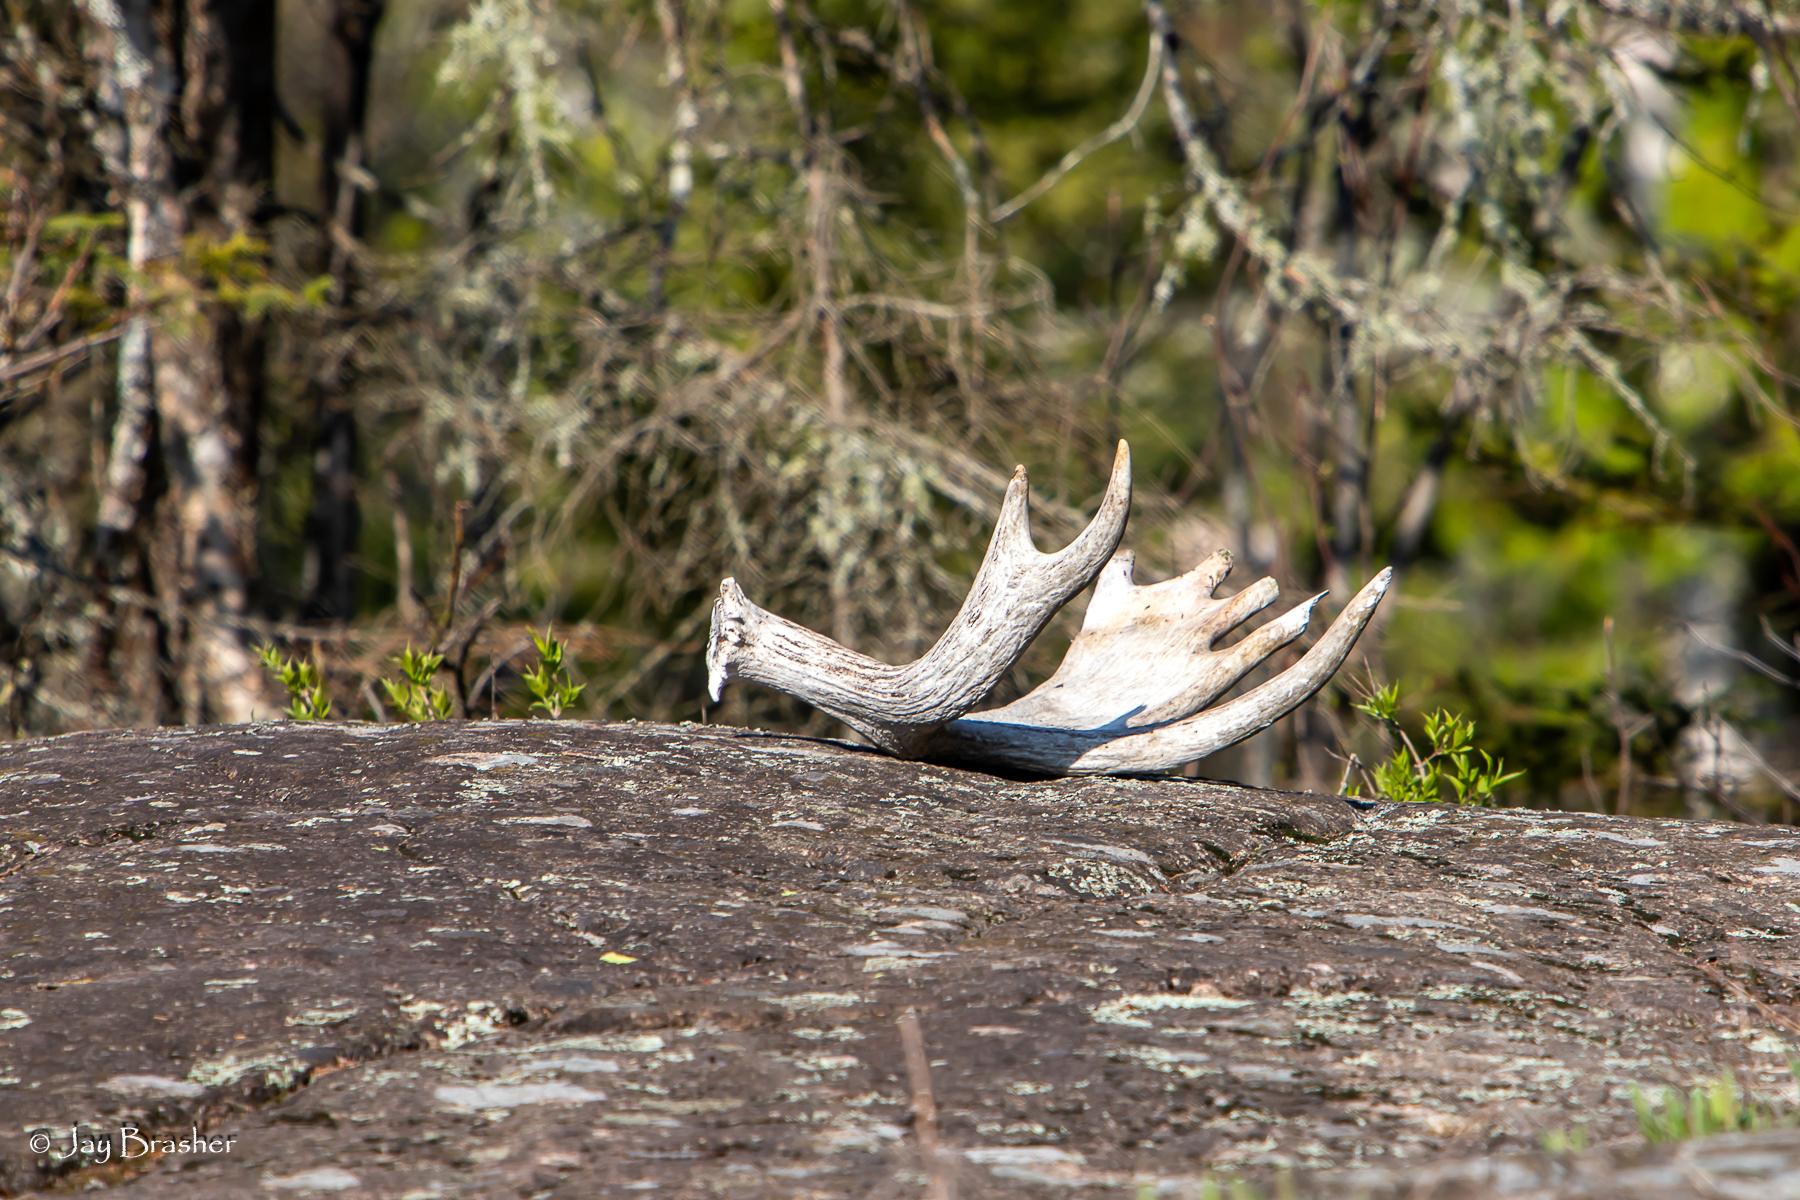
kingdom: Animalia
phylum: Chordata
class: Mammalia
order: Artiodactyla
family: Cervidae
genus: Alces
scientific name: Alces americanus
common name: Moose
